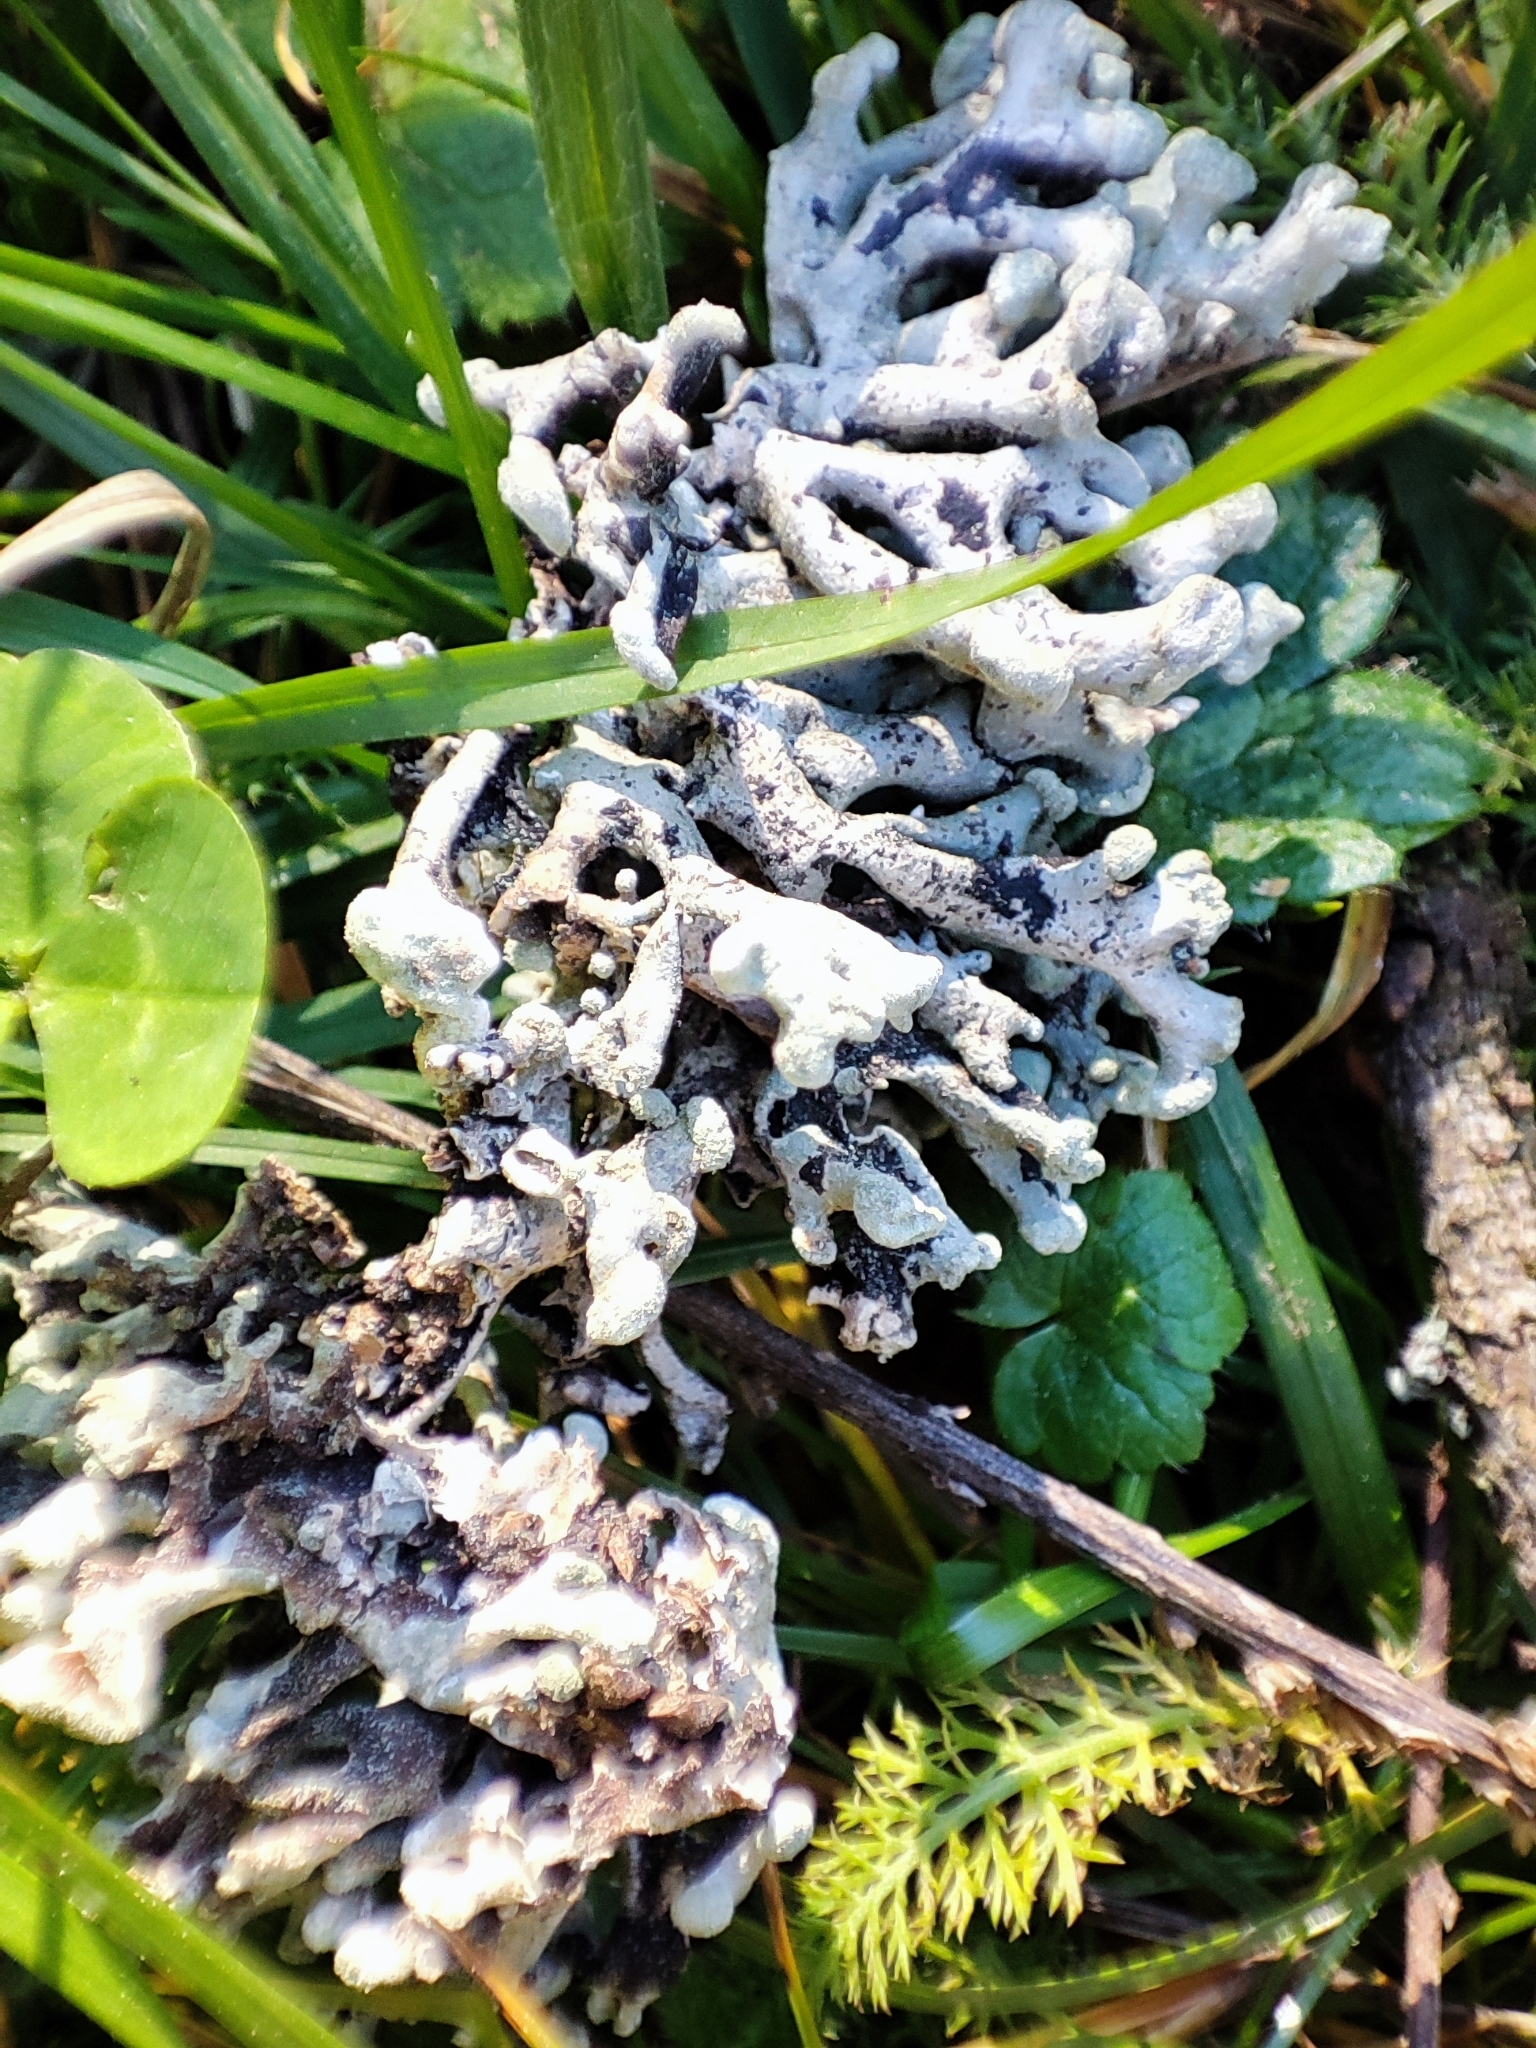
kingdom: Fungi
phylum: Ascomycota
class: Lecanoromycetes
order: Lecanorales
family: Parmeliaceae
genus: Hypogymnia
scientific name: Hypogymnia tubulosa
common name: Powder-headed tube lichen
